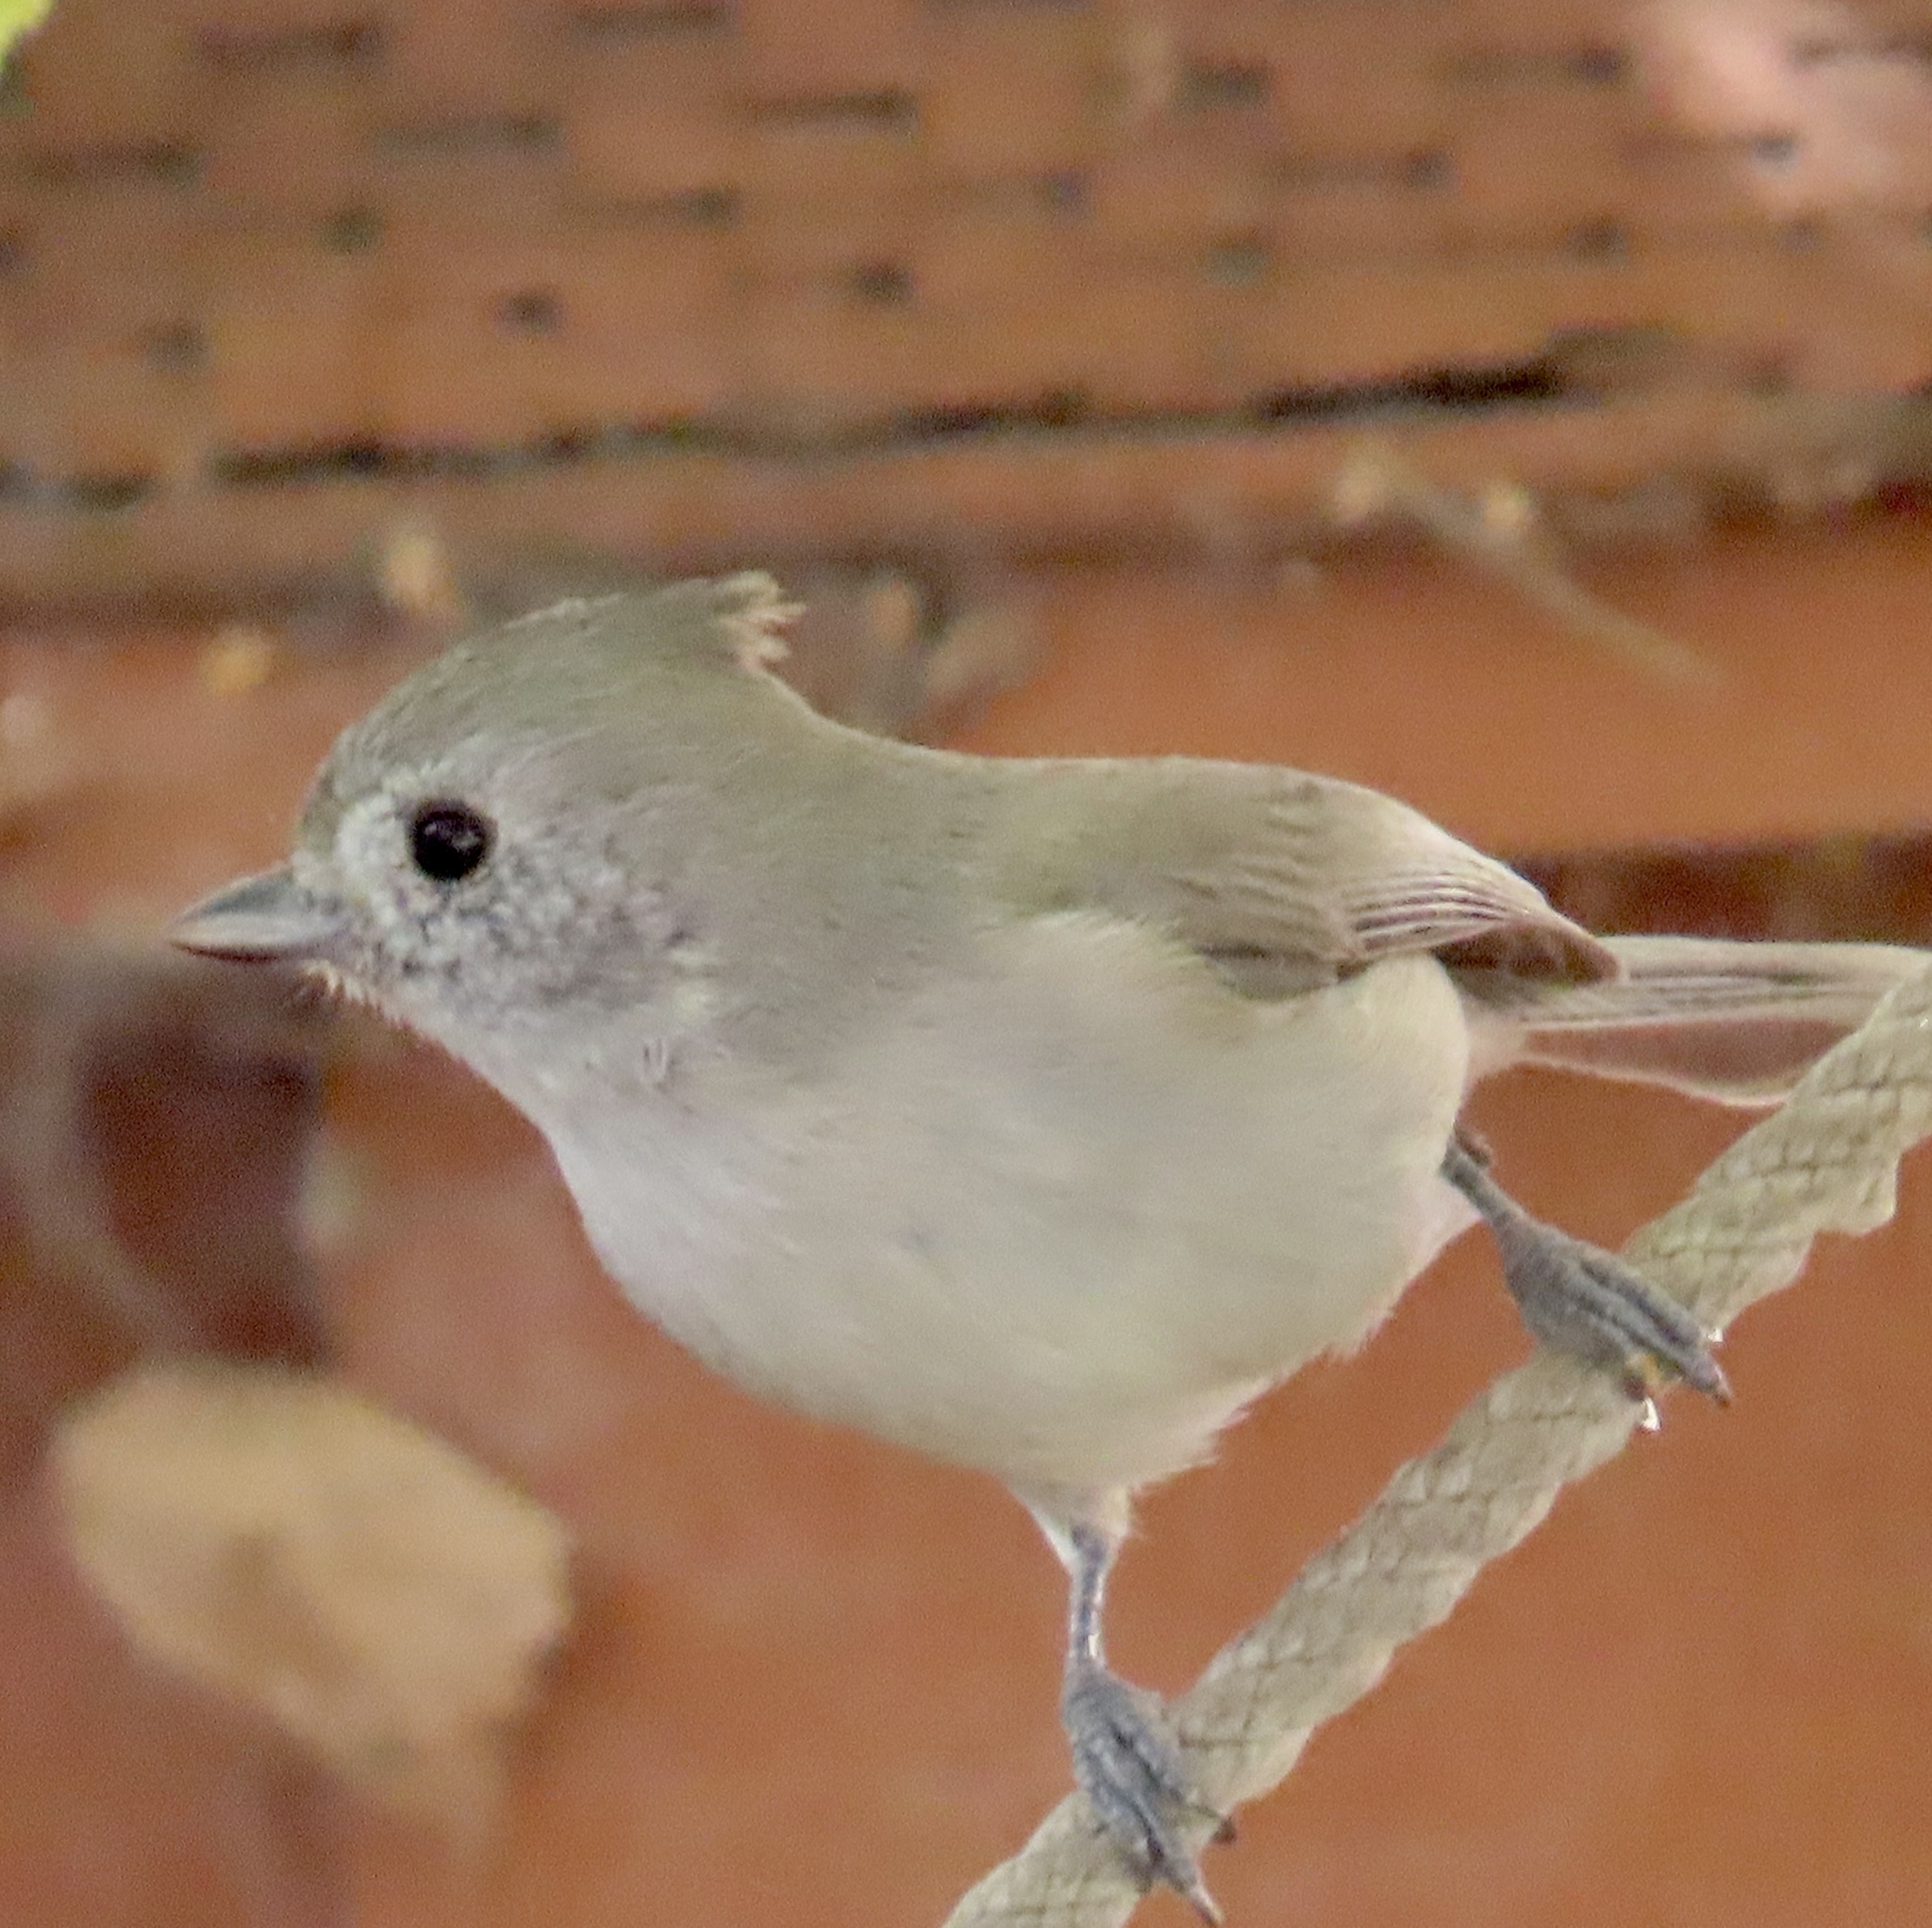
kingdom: Animalia
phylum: Chordata
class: Aves
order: Passeriformes
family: Paridae
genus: Baeolophus
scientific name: Baeolophus inornatus
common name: Oak titmouse
